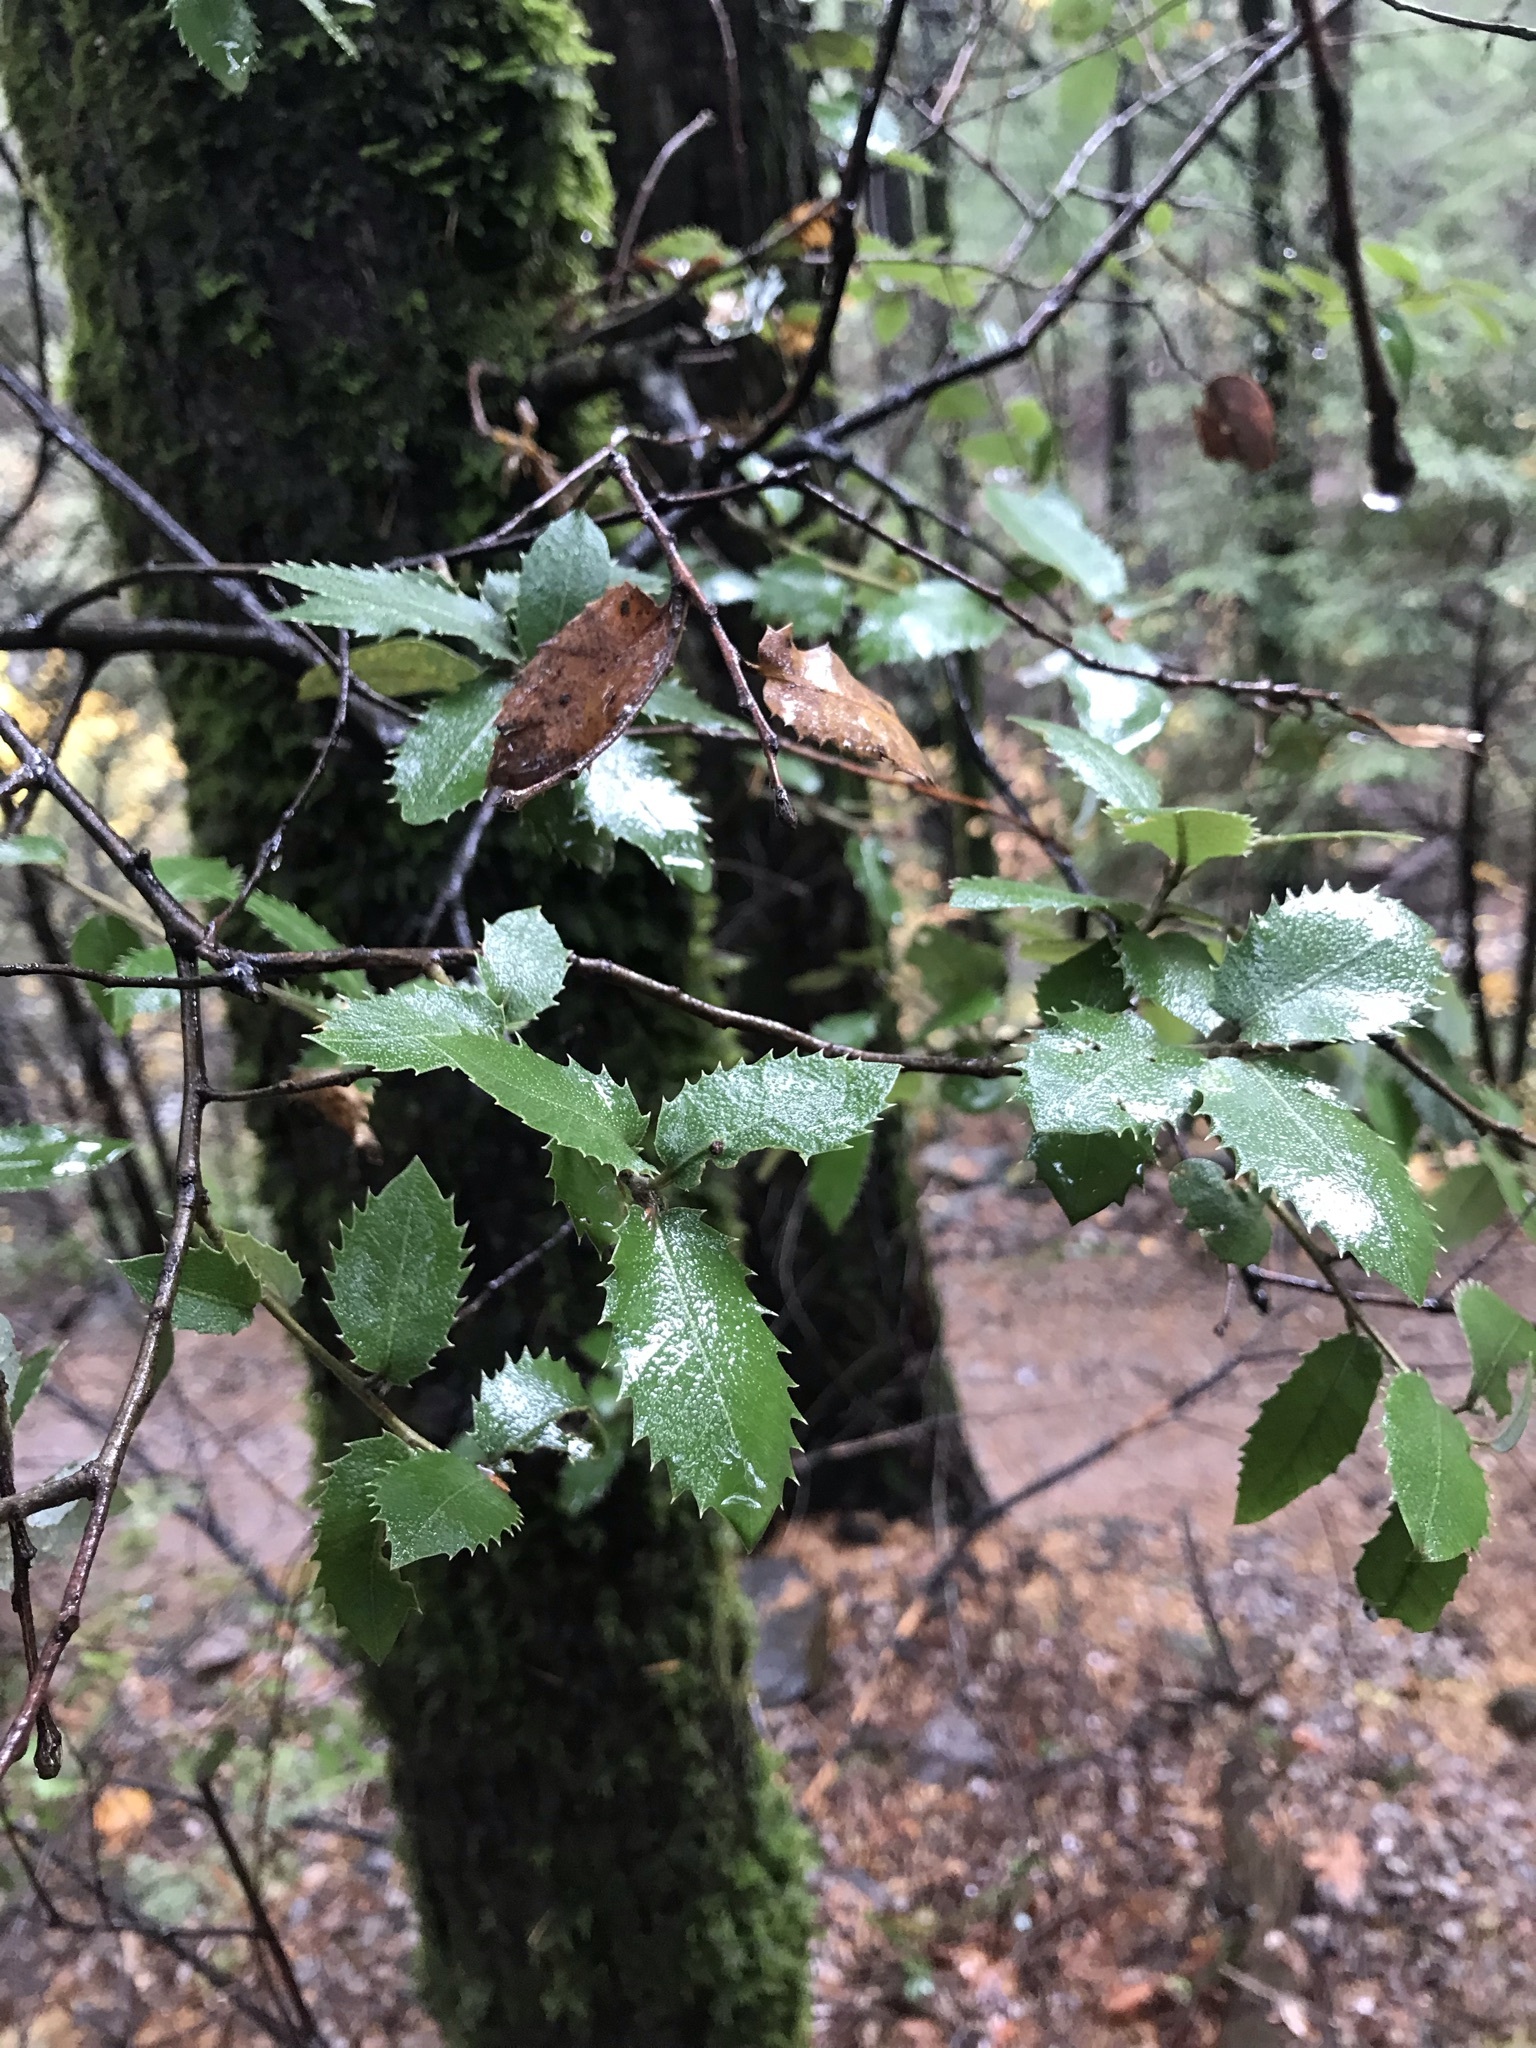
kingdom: Plantae
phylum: Tracheophyta
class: Magnoliopsida
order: Fagales
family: Fagaceae
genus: Quercus
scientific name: Quercus chrysolepis
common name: Canyon live oak
